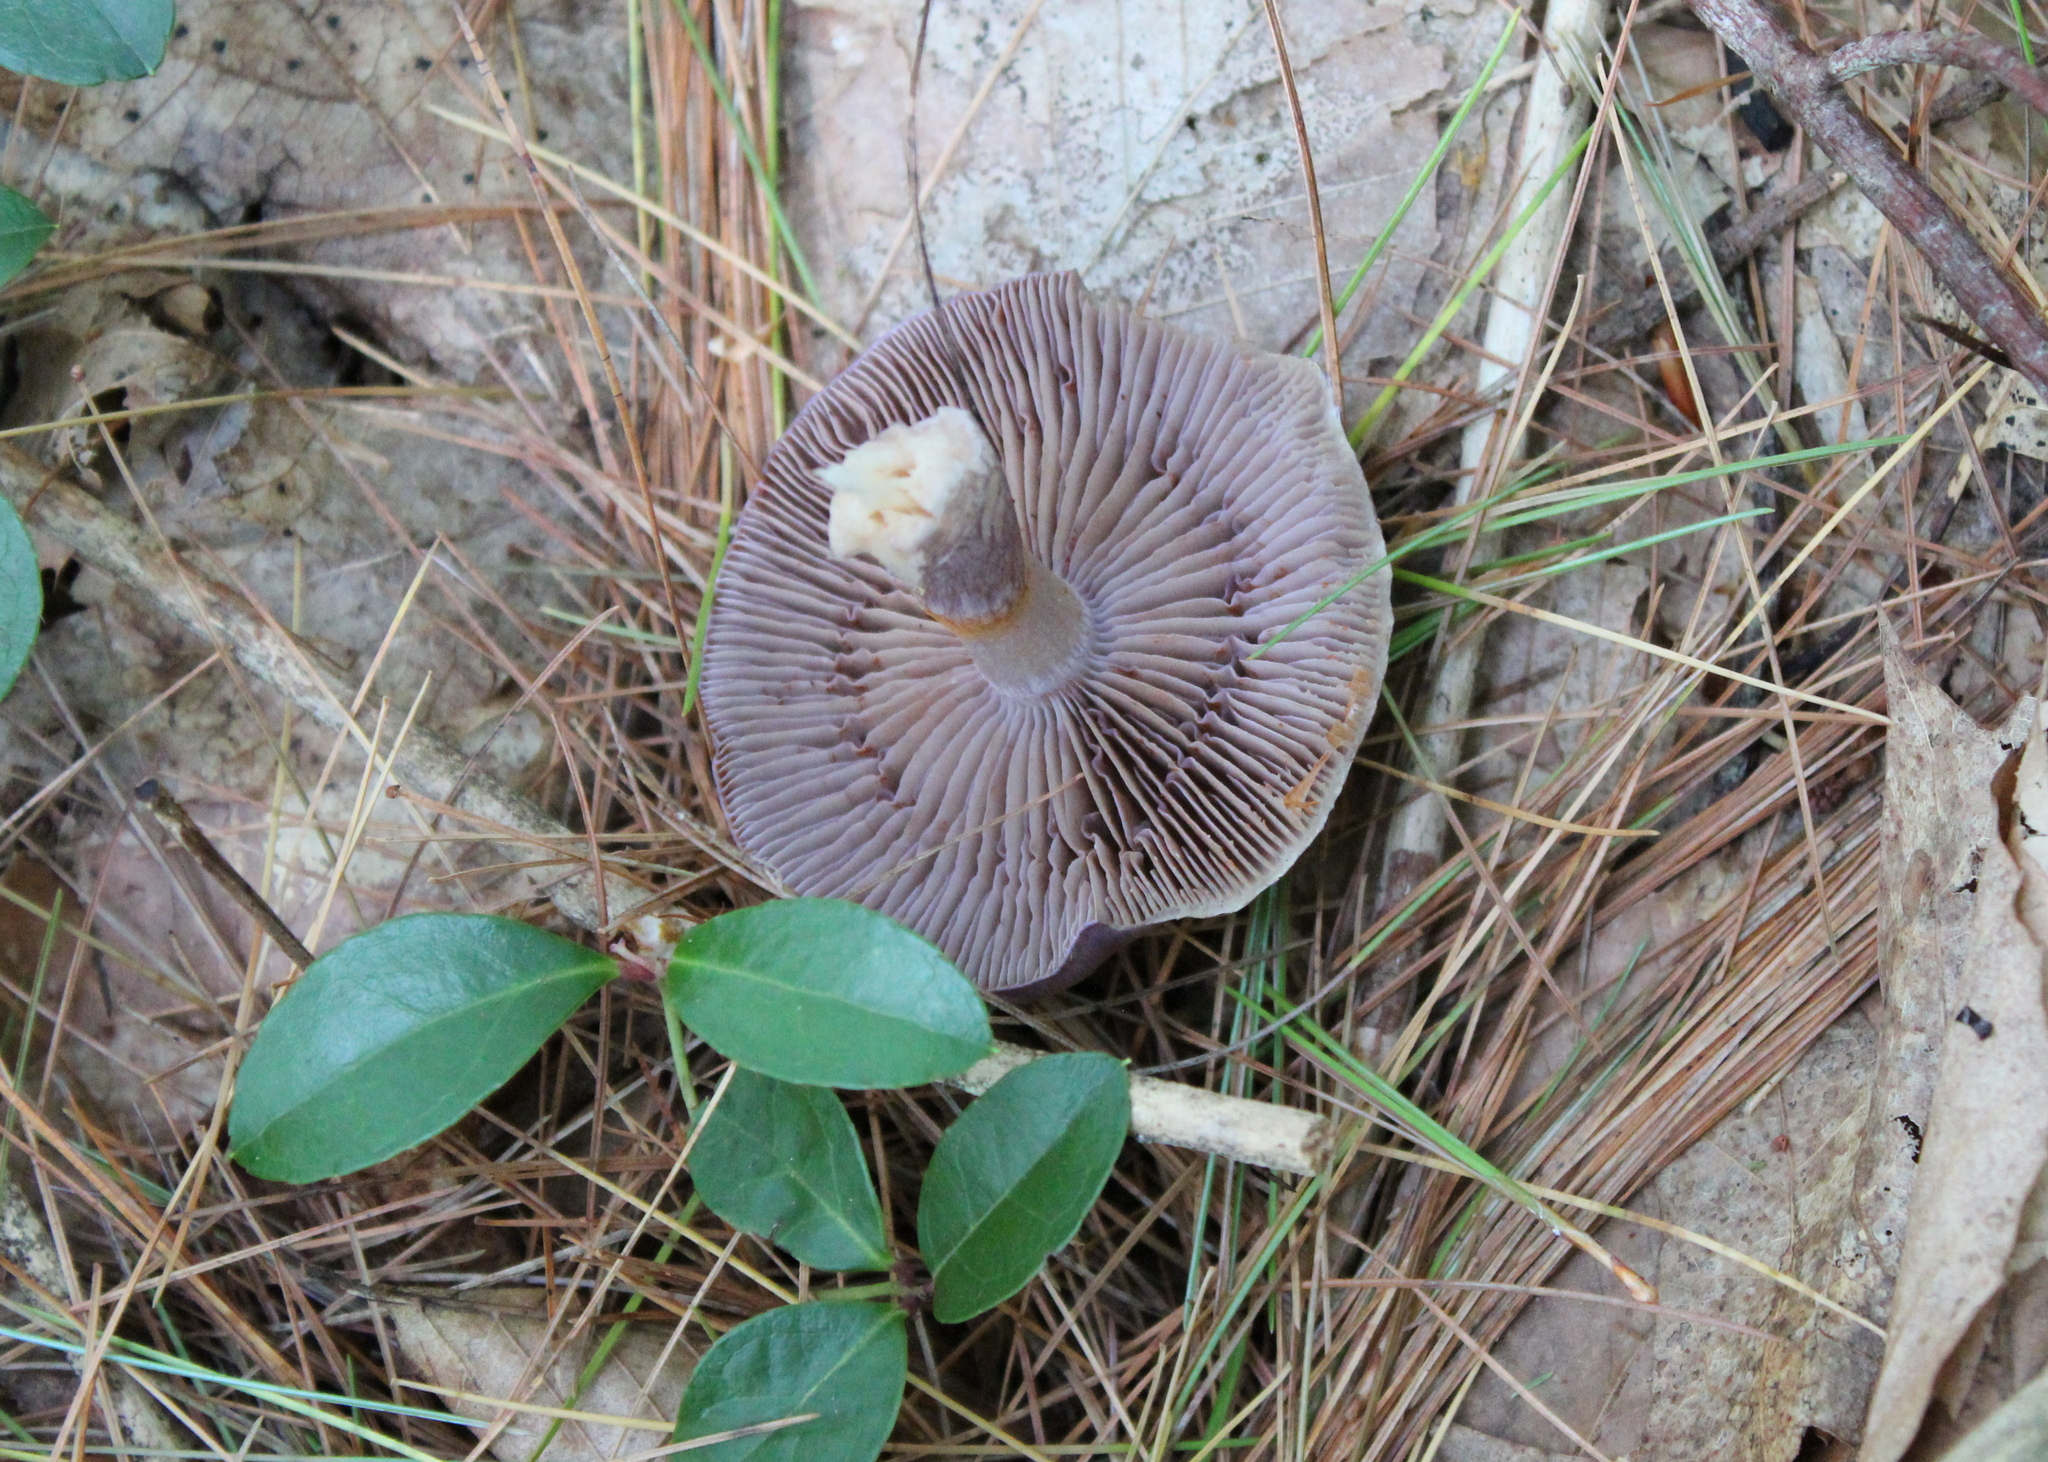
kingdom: Fungi
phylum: Basidiomycota
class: Agaricomycetes
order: Agaricales
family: Cortinariaceae
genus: Cortinarius
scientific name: Cortinarius iodes
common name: Viscid violet cort
